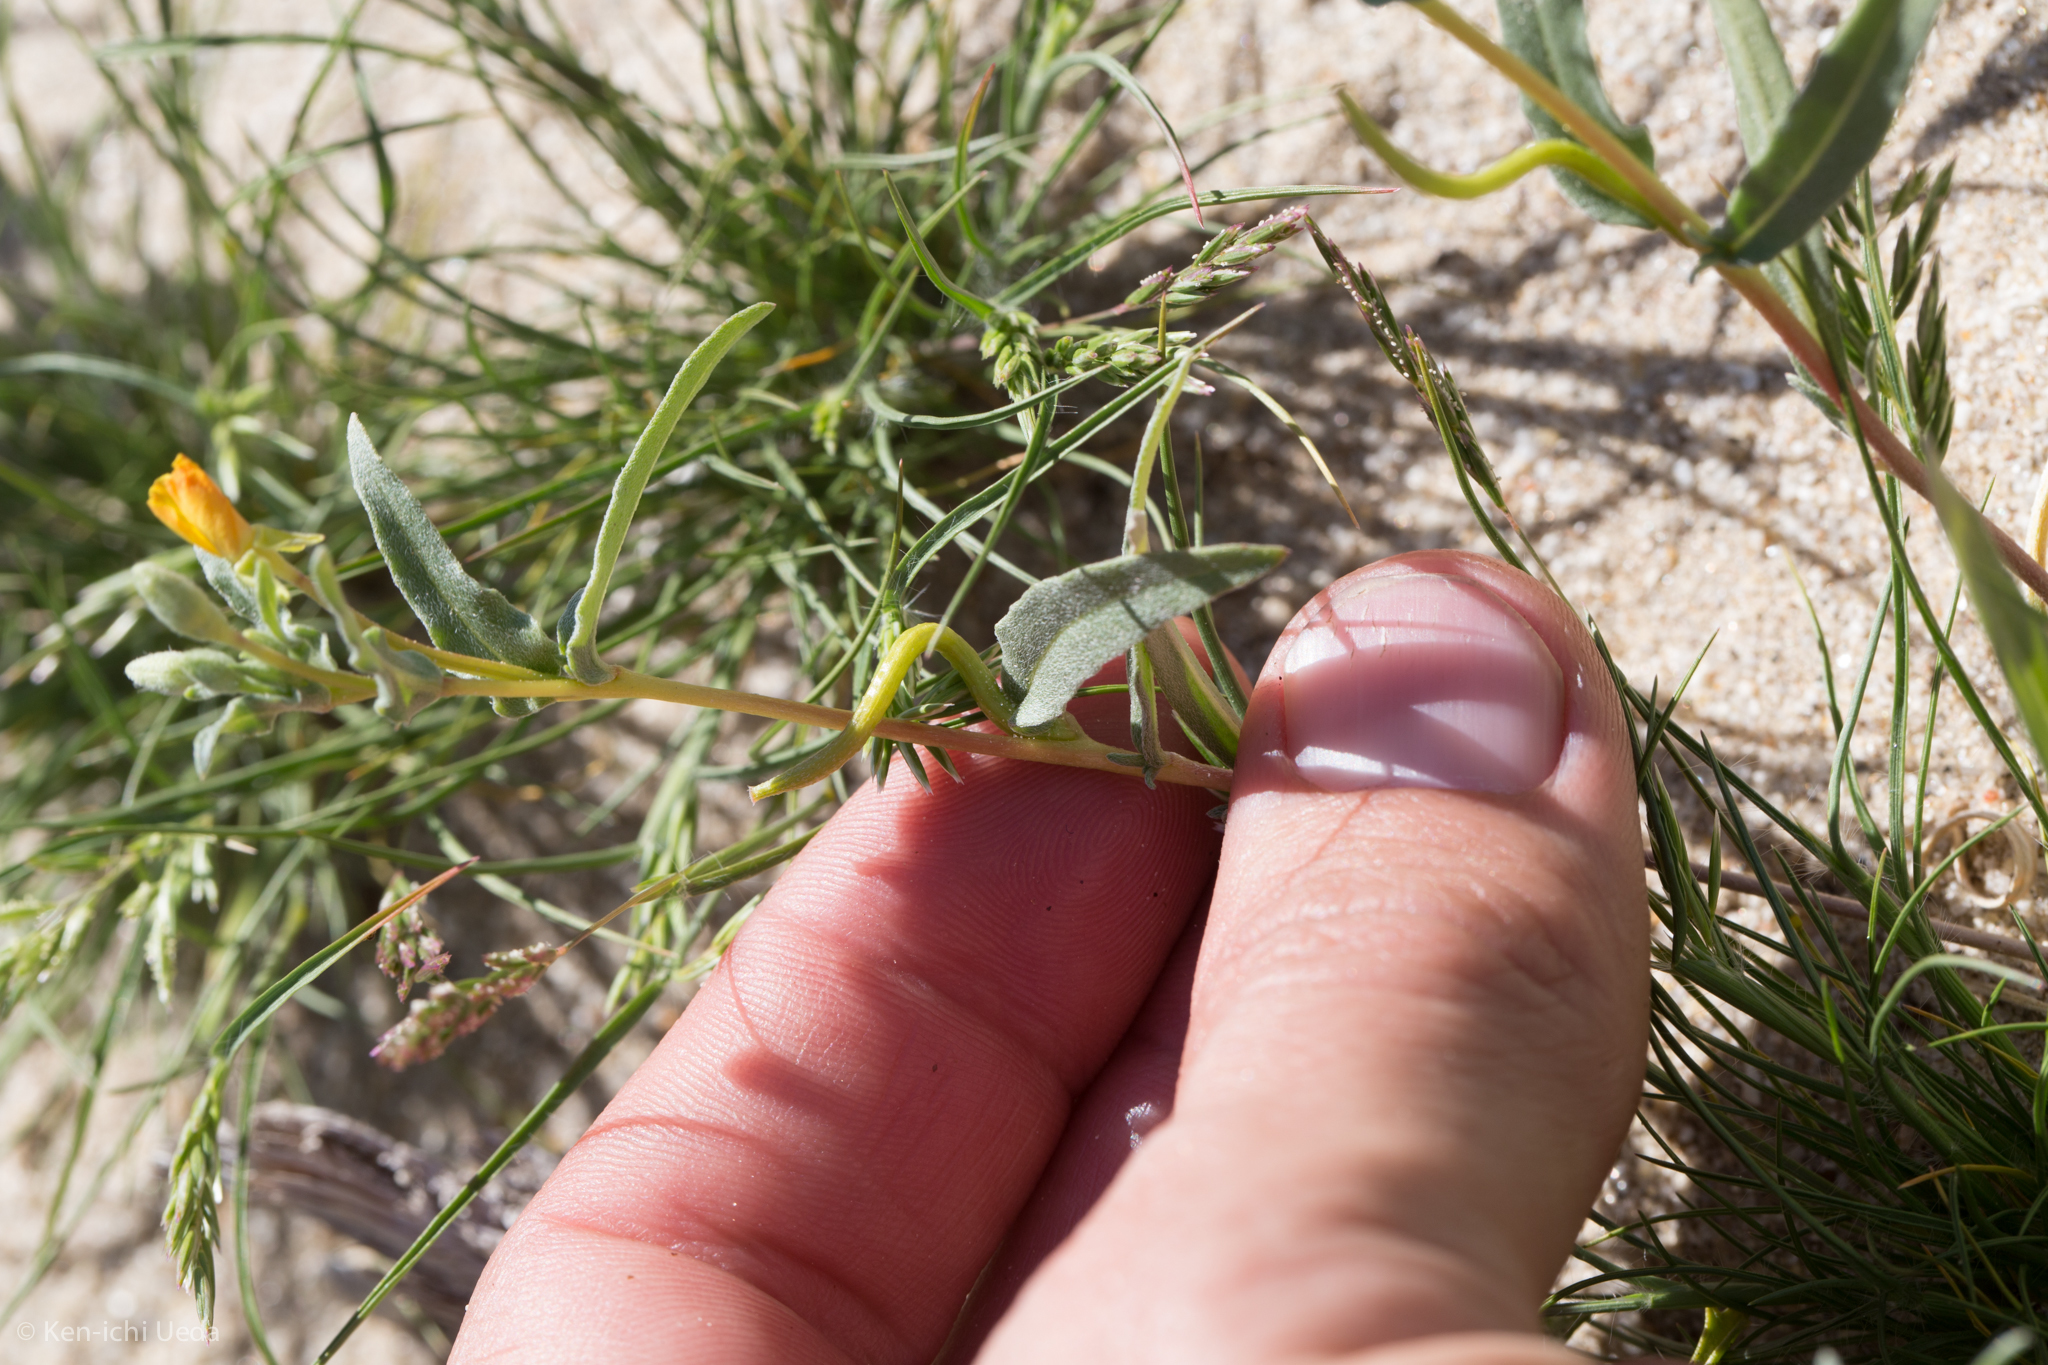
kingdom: Plantae
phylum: Tracheophyta
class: Magnoliopsida
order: Myrtales
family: Onagraceae
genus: Camissoniopsis
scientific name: Camissoniopsis pallida
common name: Paleyellow suncup
